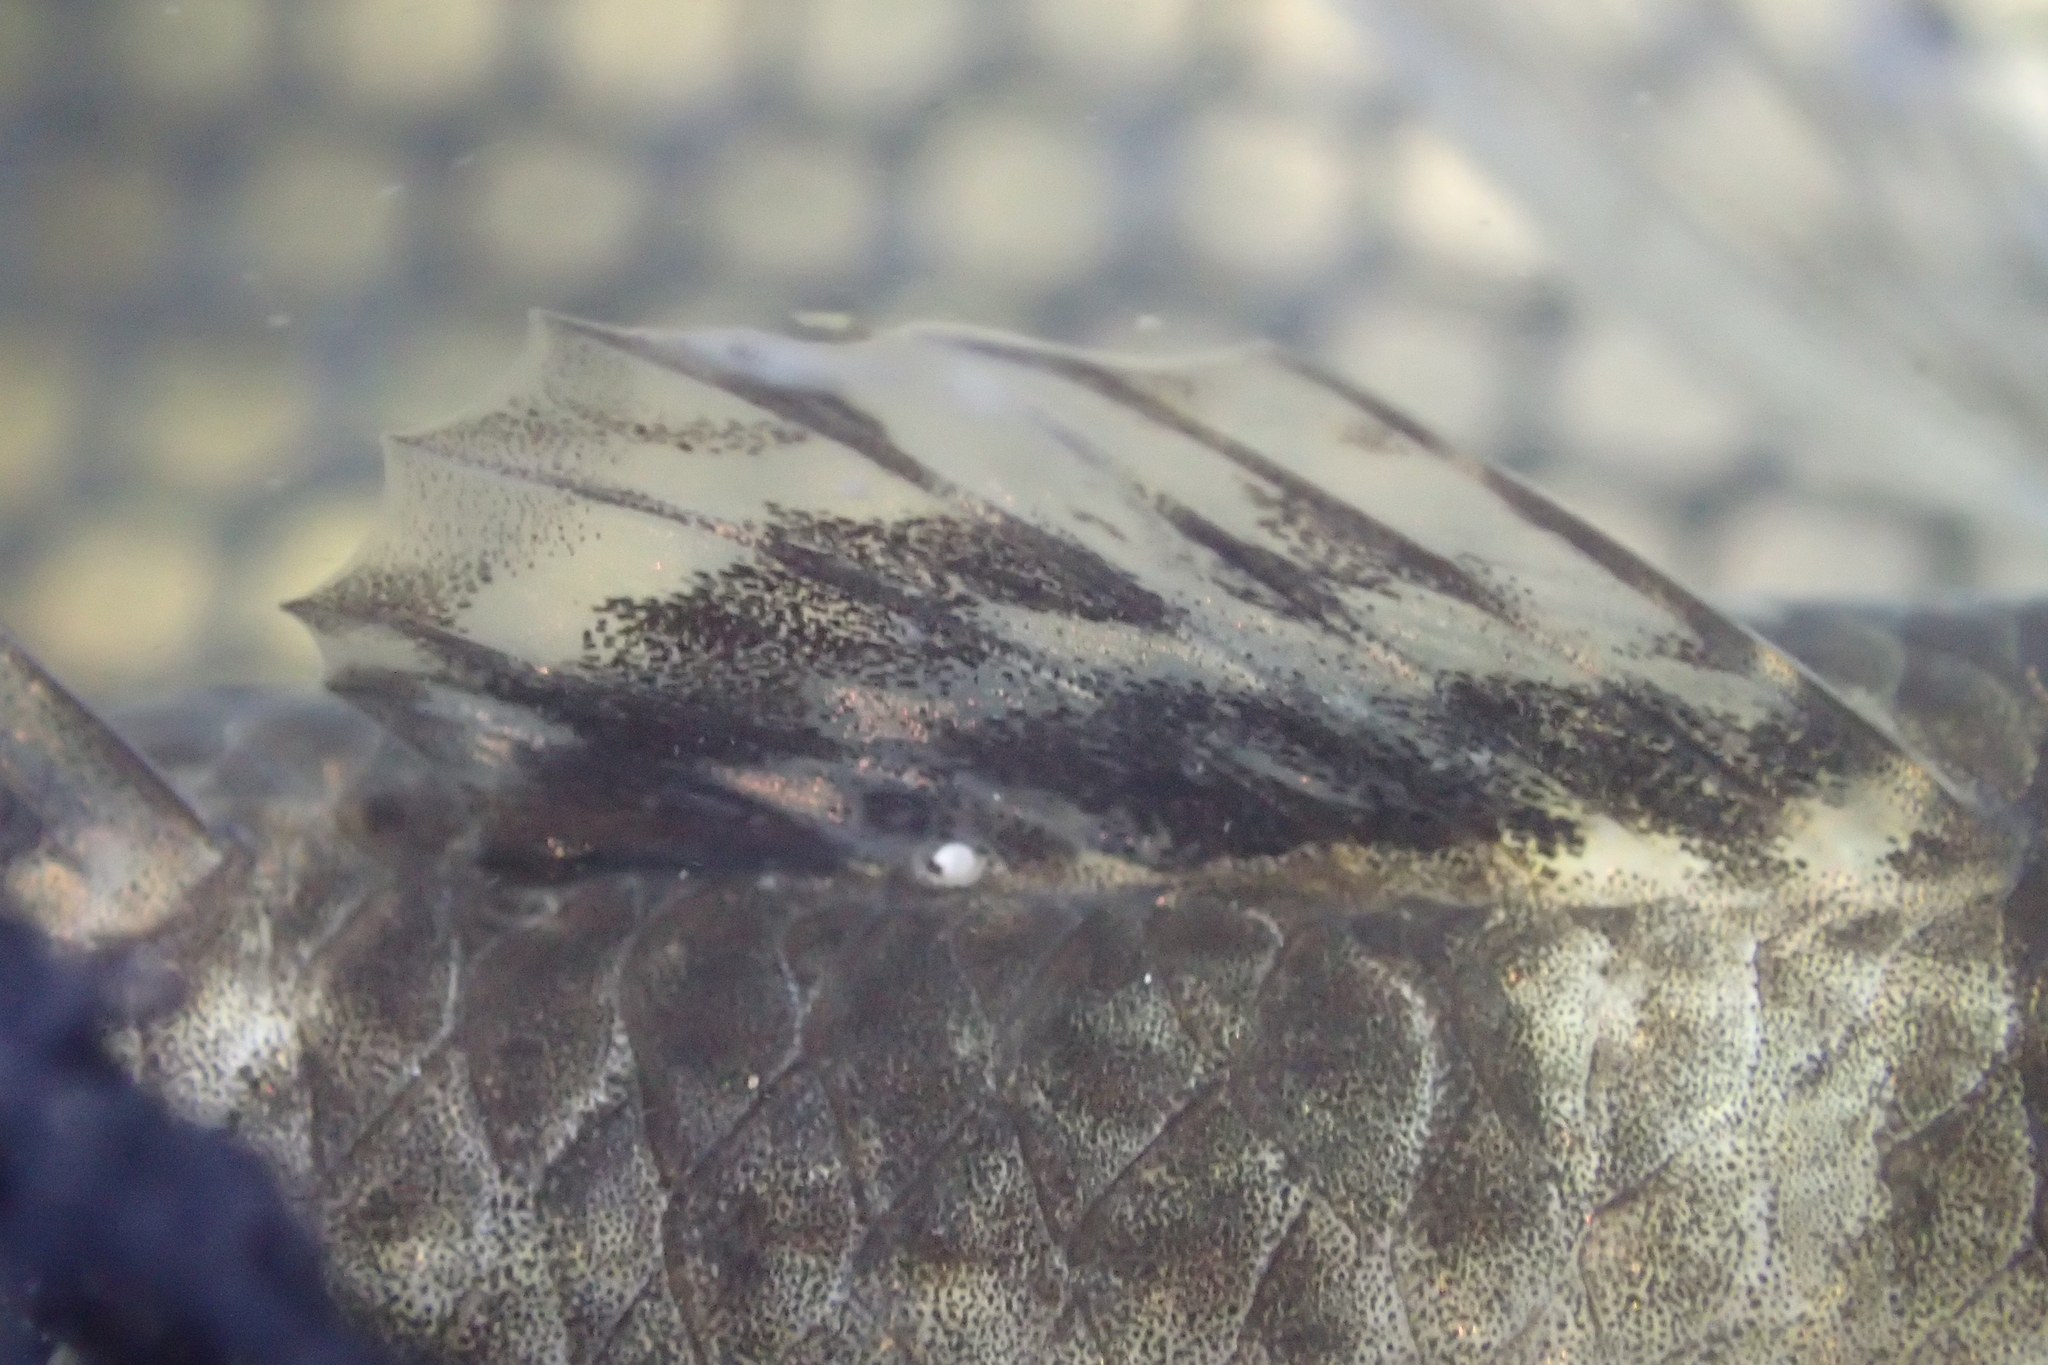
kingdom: Animalia
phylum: Chordata
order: Perciformes
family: Eleotridae
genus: Gobiomorphus
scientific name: Gobiomorphus cotidianus
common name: Common bully
